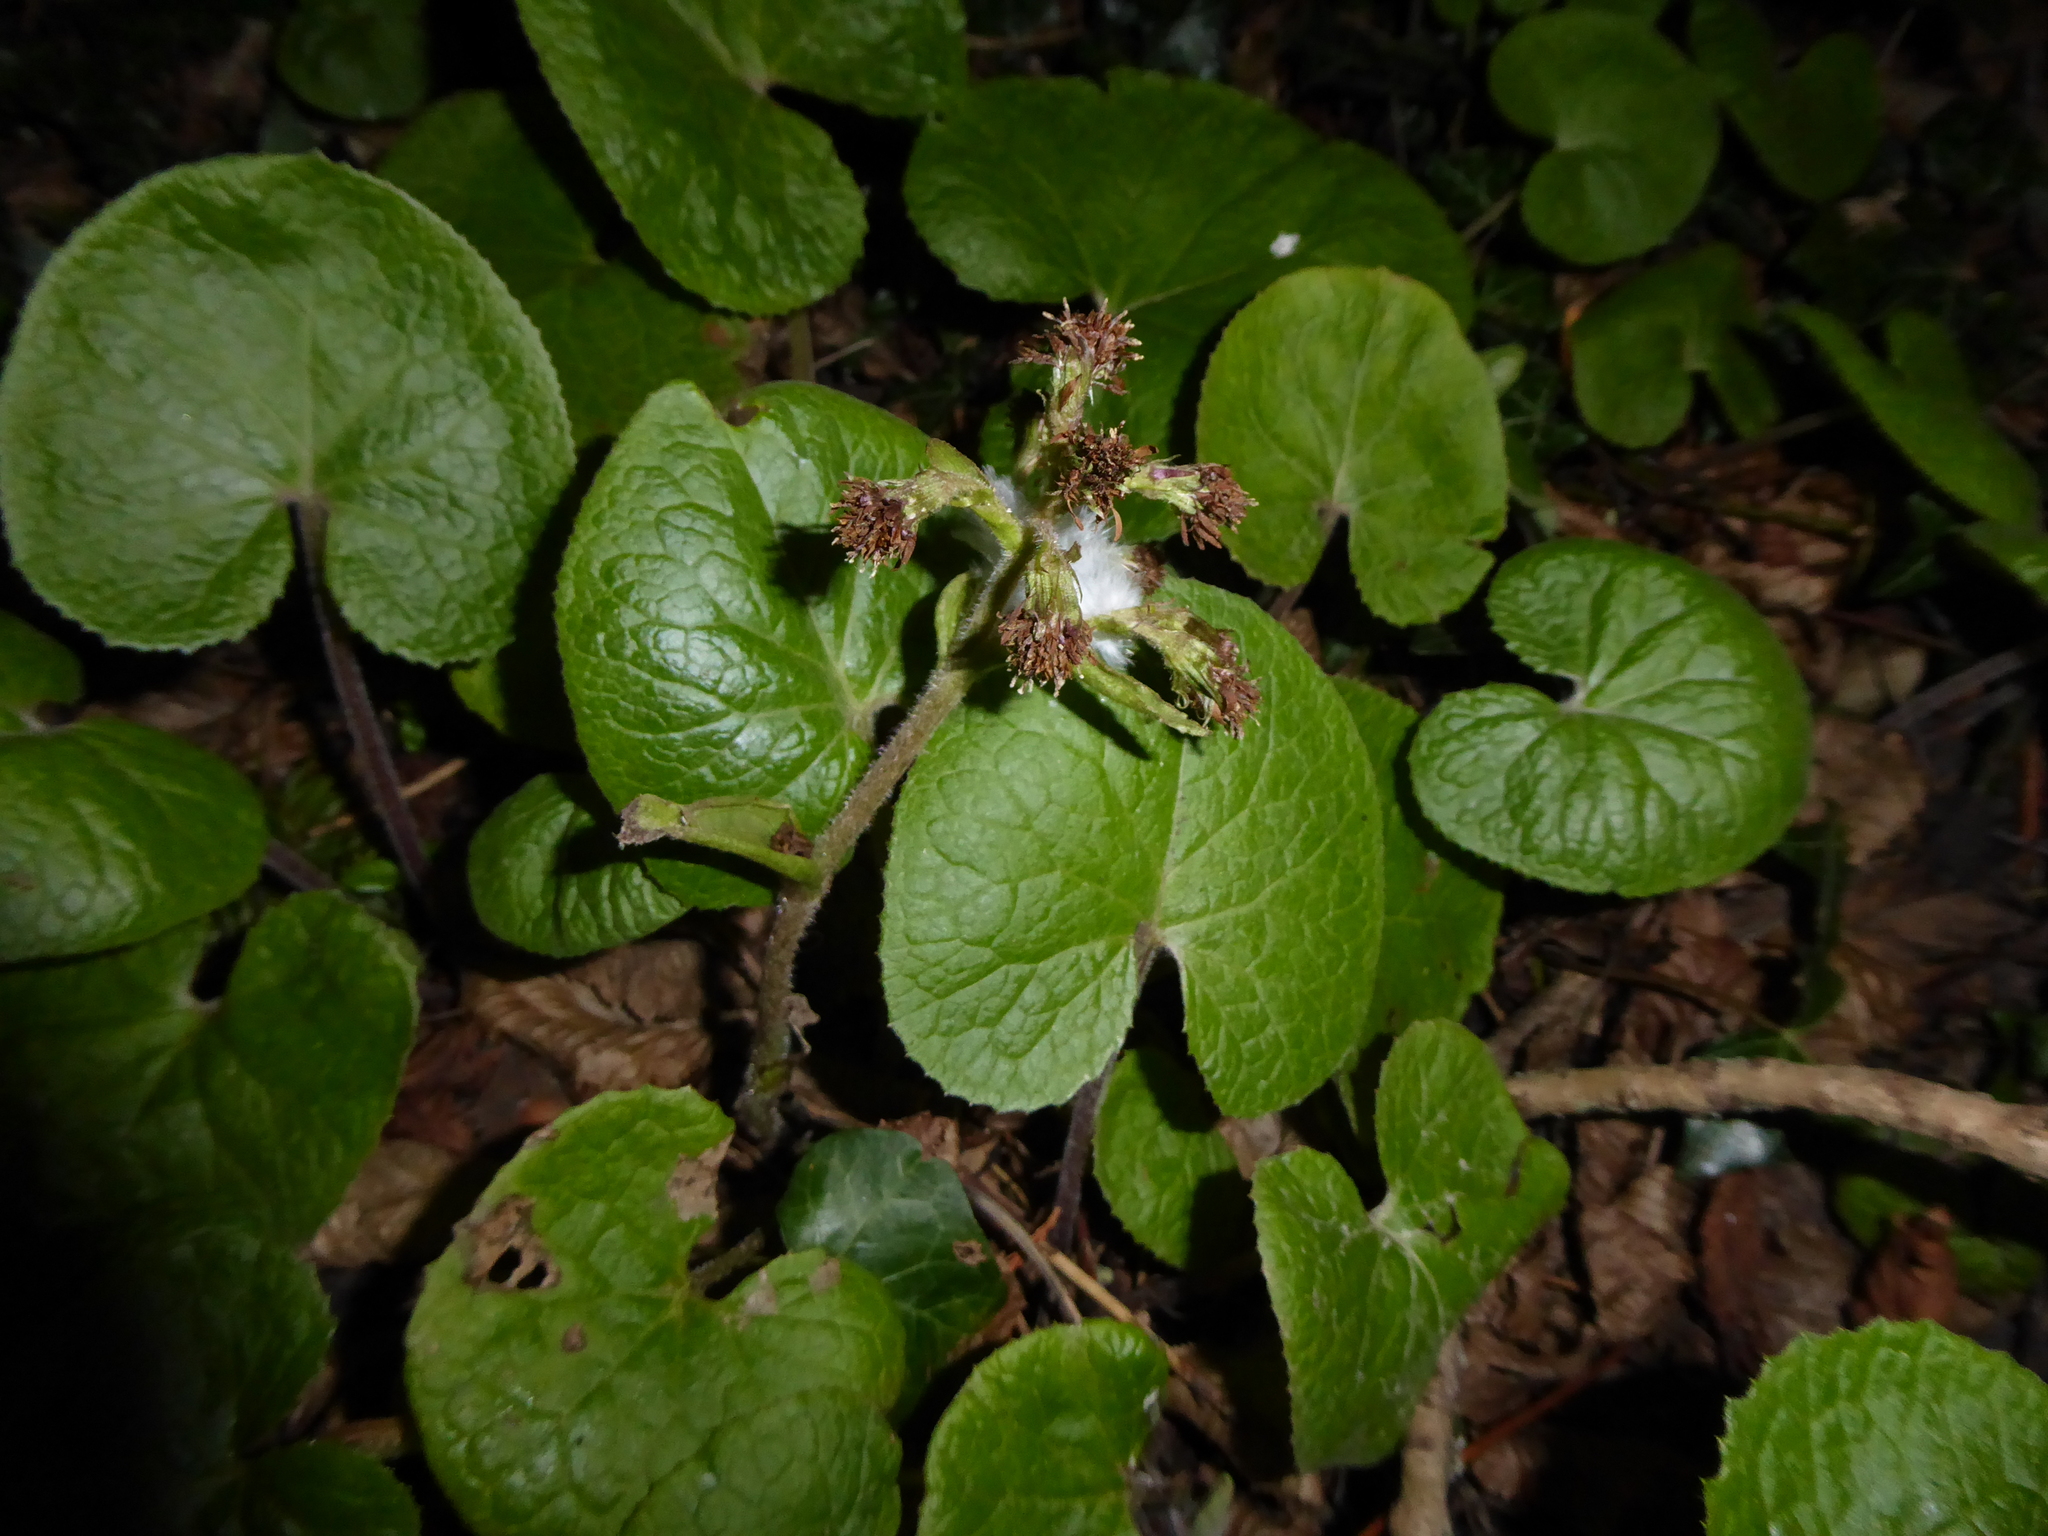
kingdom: Plantae
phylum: Tracheophyta
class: Magnoliopsida
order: Asterales
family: Asteraceae
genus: Petasites
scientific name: Petasites pyrenaicus
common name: Winter heliotrope
